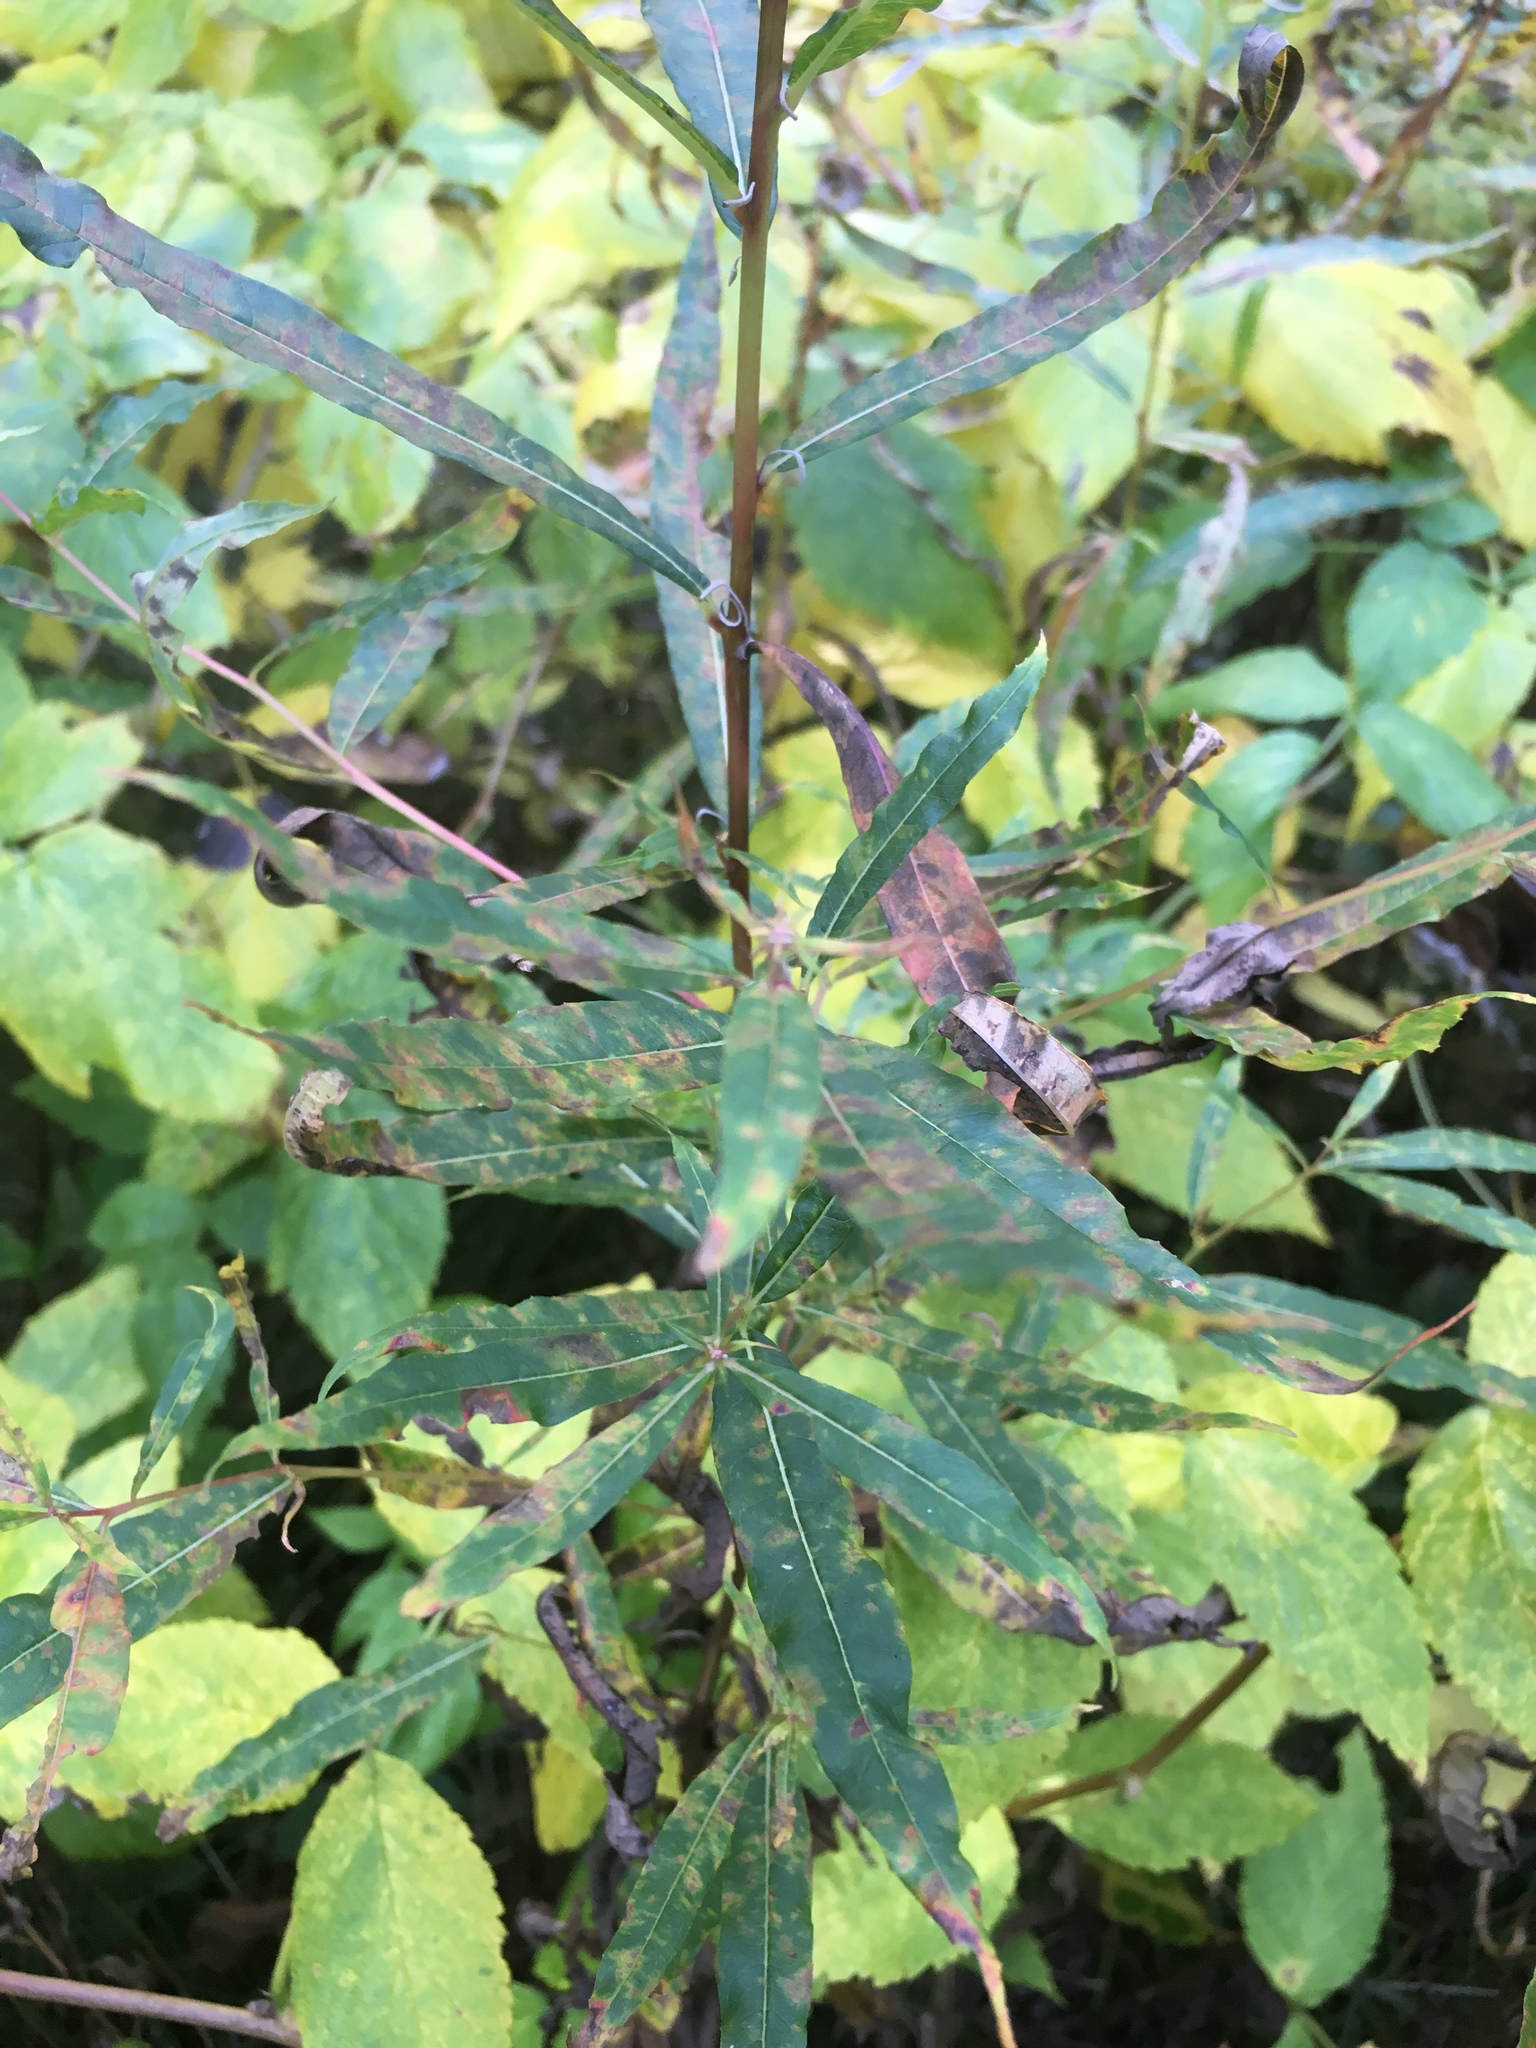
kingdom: Plantae
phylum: Tracheophyta
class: Magnoliopsida
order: Myrtales
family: Onagraceae
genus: Chamaenerion
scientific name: Chamaenerion angustifolium
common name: Fireweed
